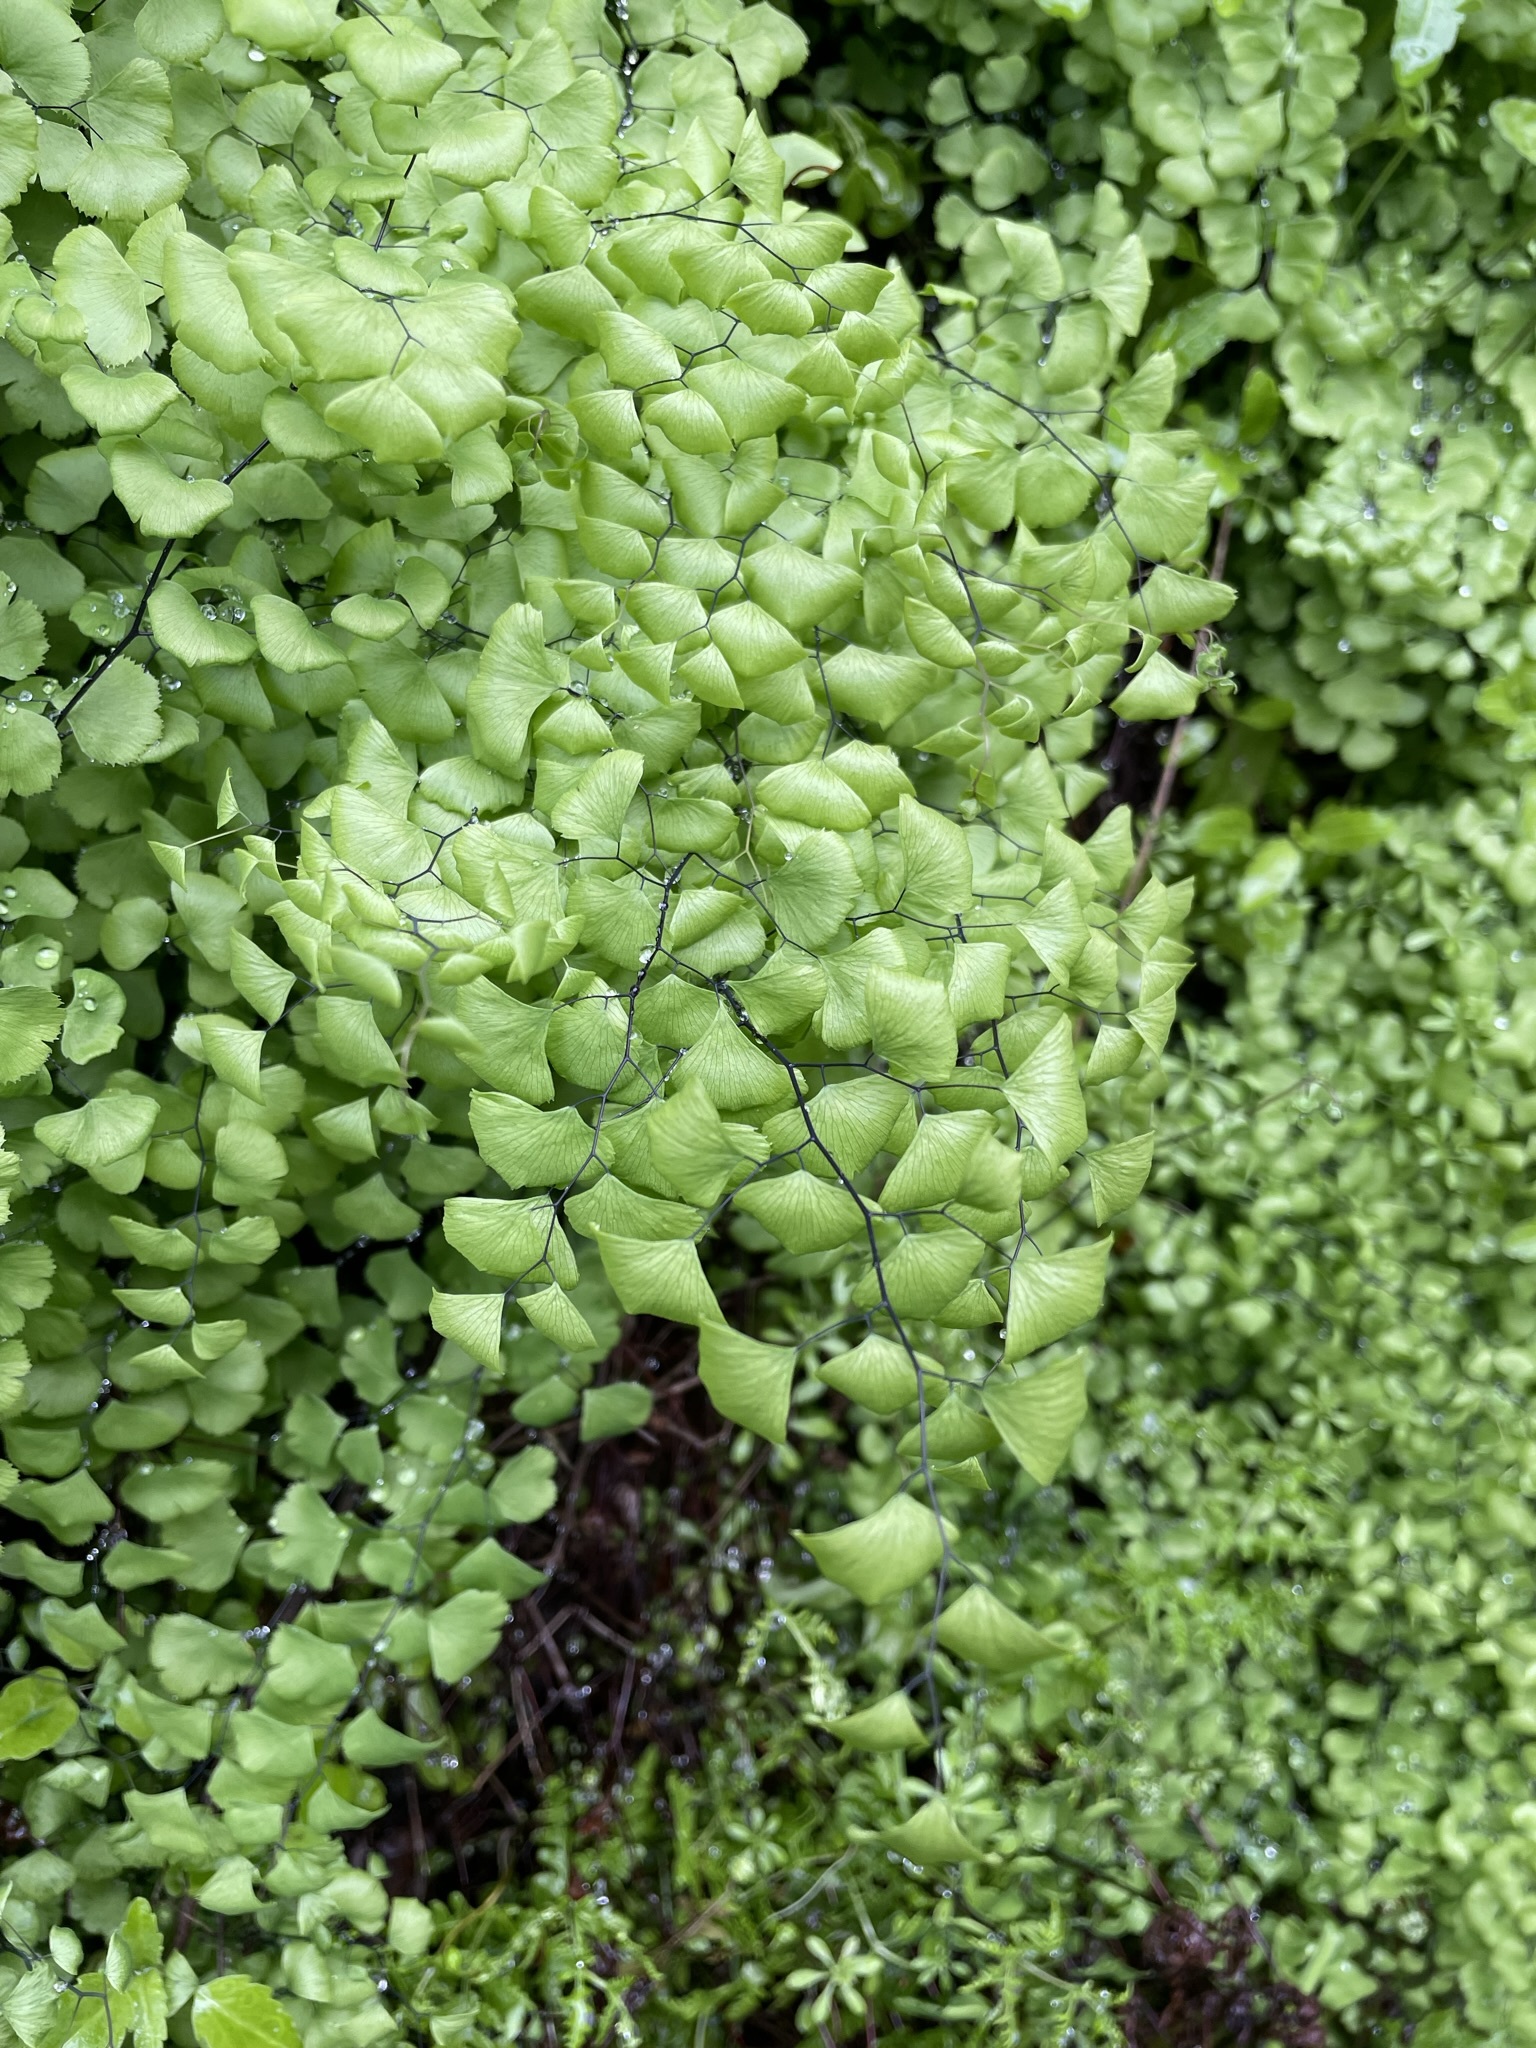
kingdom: Plantae
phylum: Tracheophyta
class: Polypodiopsida
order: Polypodiales
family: Pteridaceae
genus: Adiantum
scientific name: Adiantum jordanii
